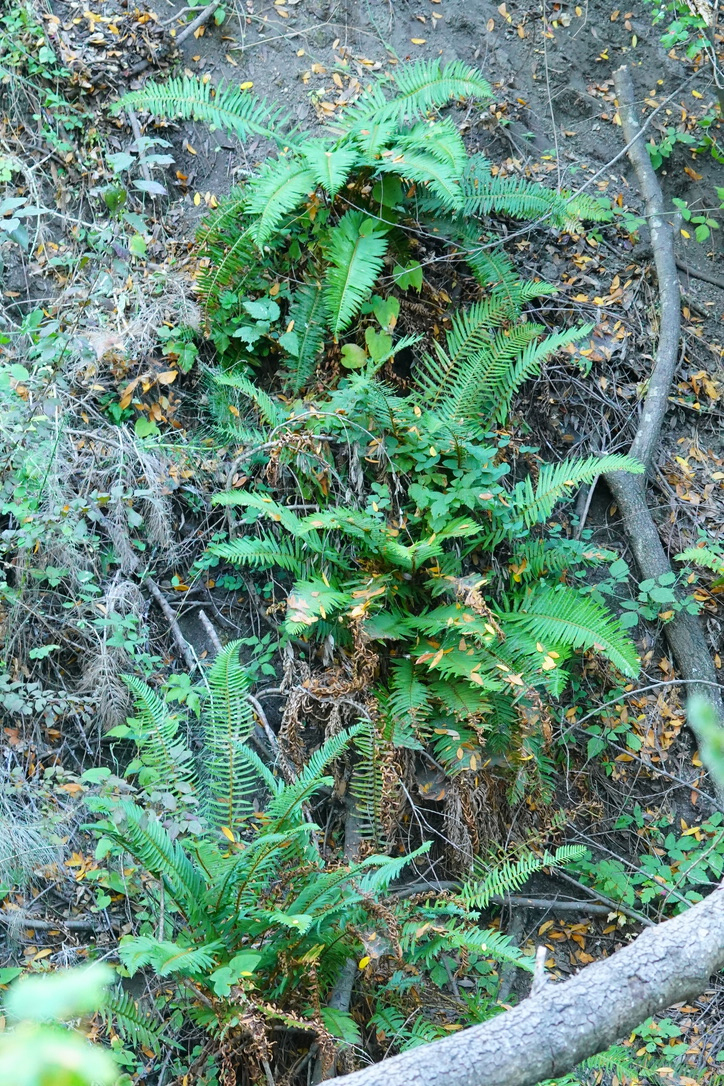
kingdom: Plantae
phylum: Tracheophyta
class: Polypodiopsida
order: Polypodiales
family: Dryopteridaceae
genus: Polystichum
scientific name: Polystichum munitum
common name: Western sword-fern
